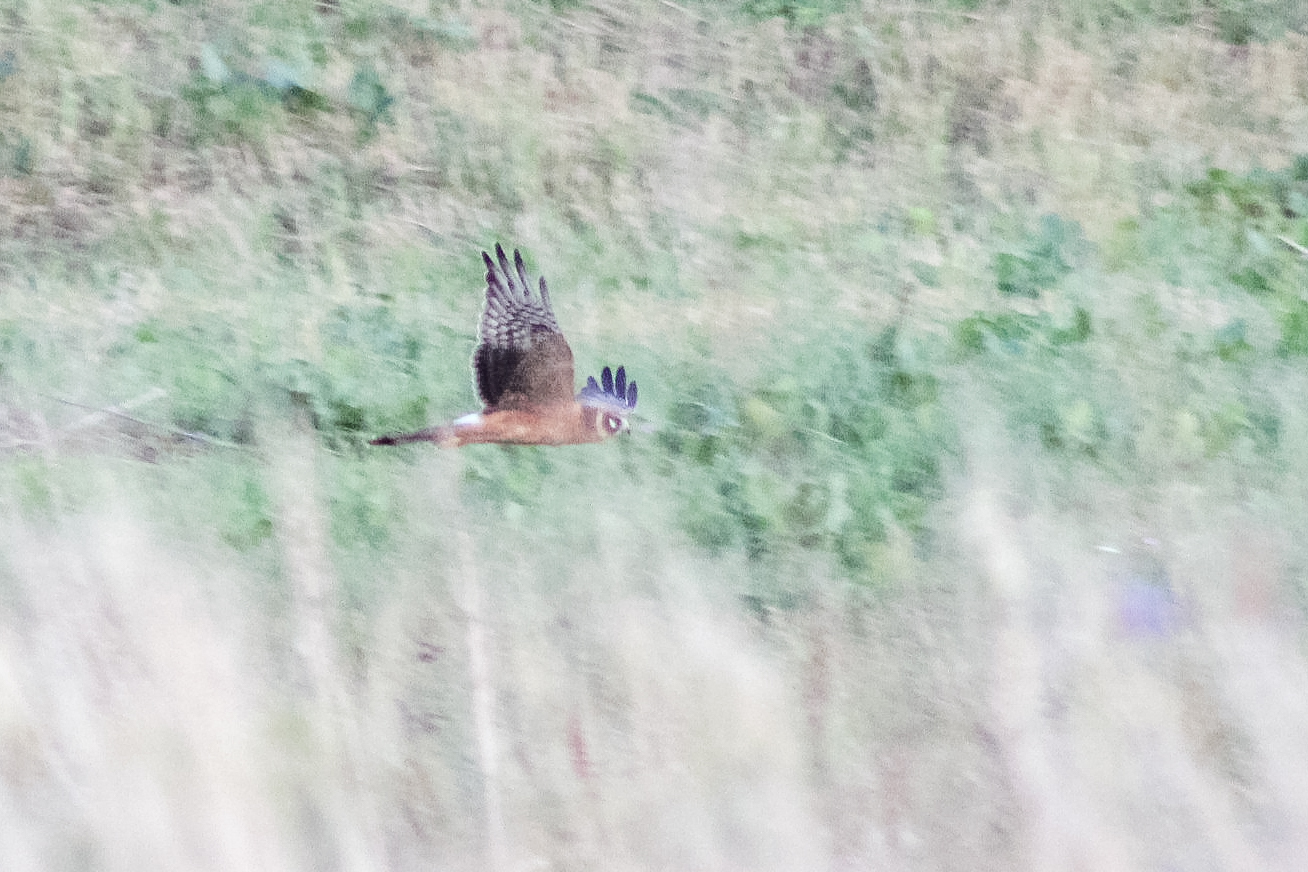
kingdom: Animalia
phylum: Chordata
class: Aves
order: Accipitriformes
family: Accipitridae
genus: Circus
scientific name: Circus macrourus
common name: Pallid harrier
